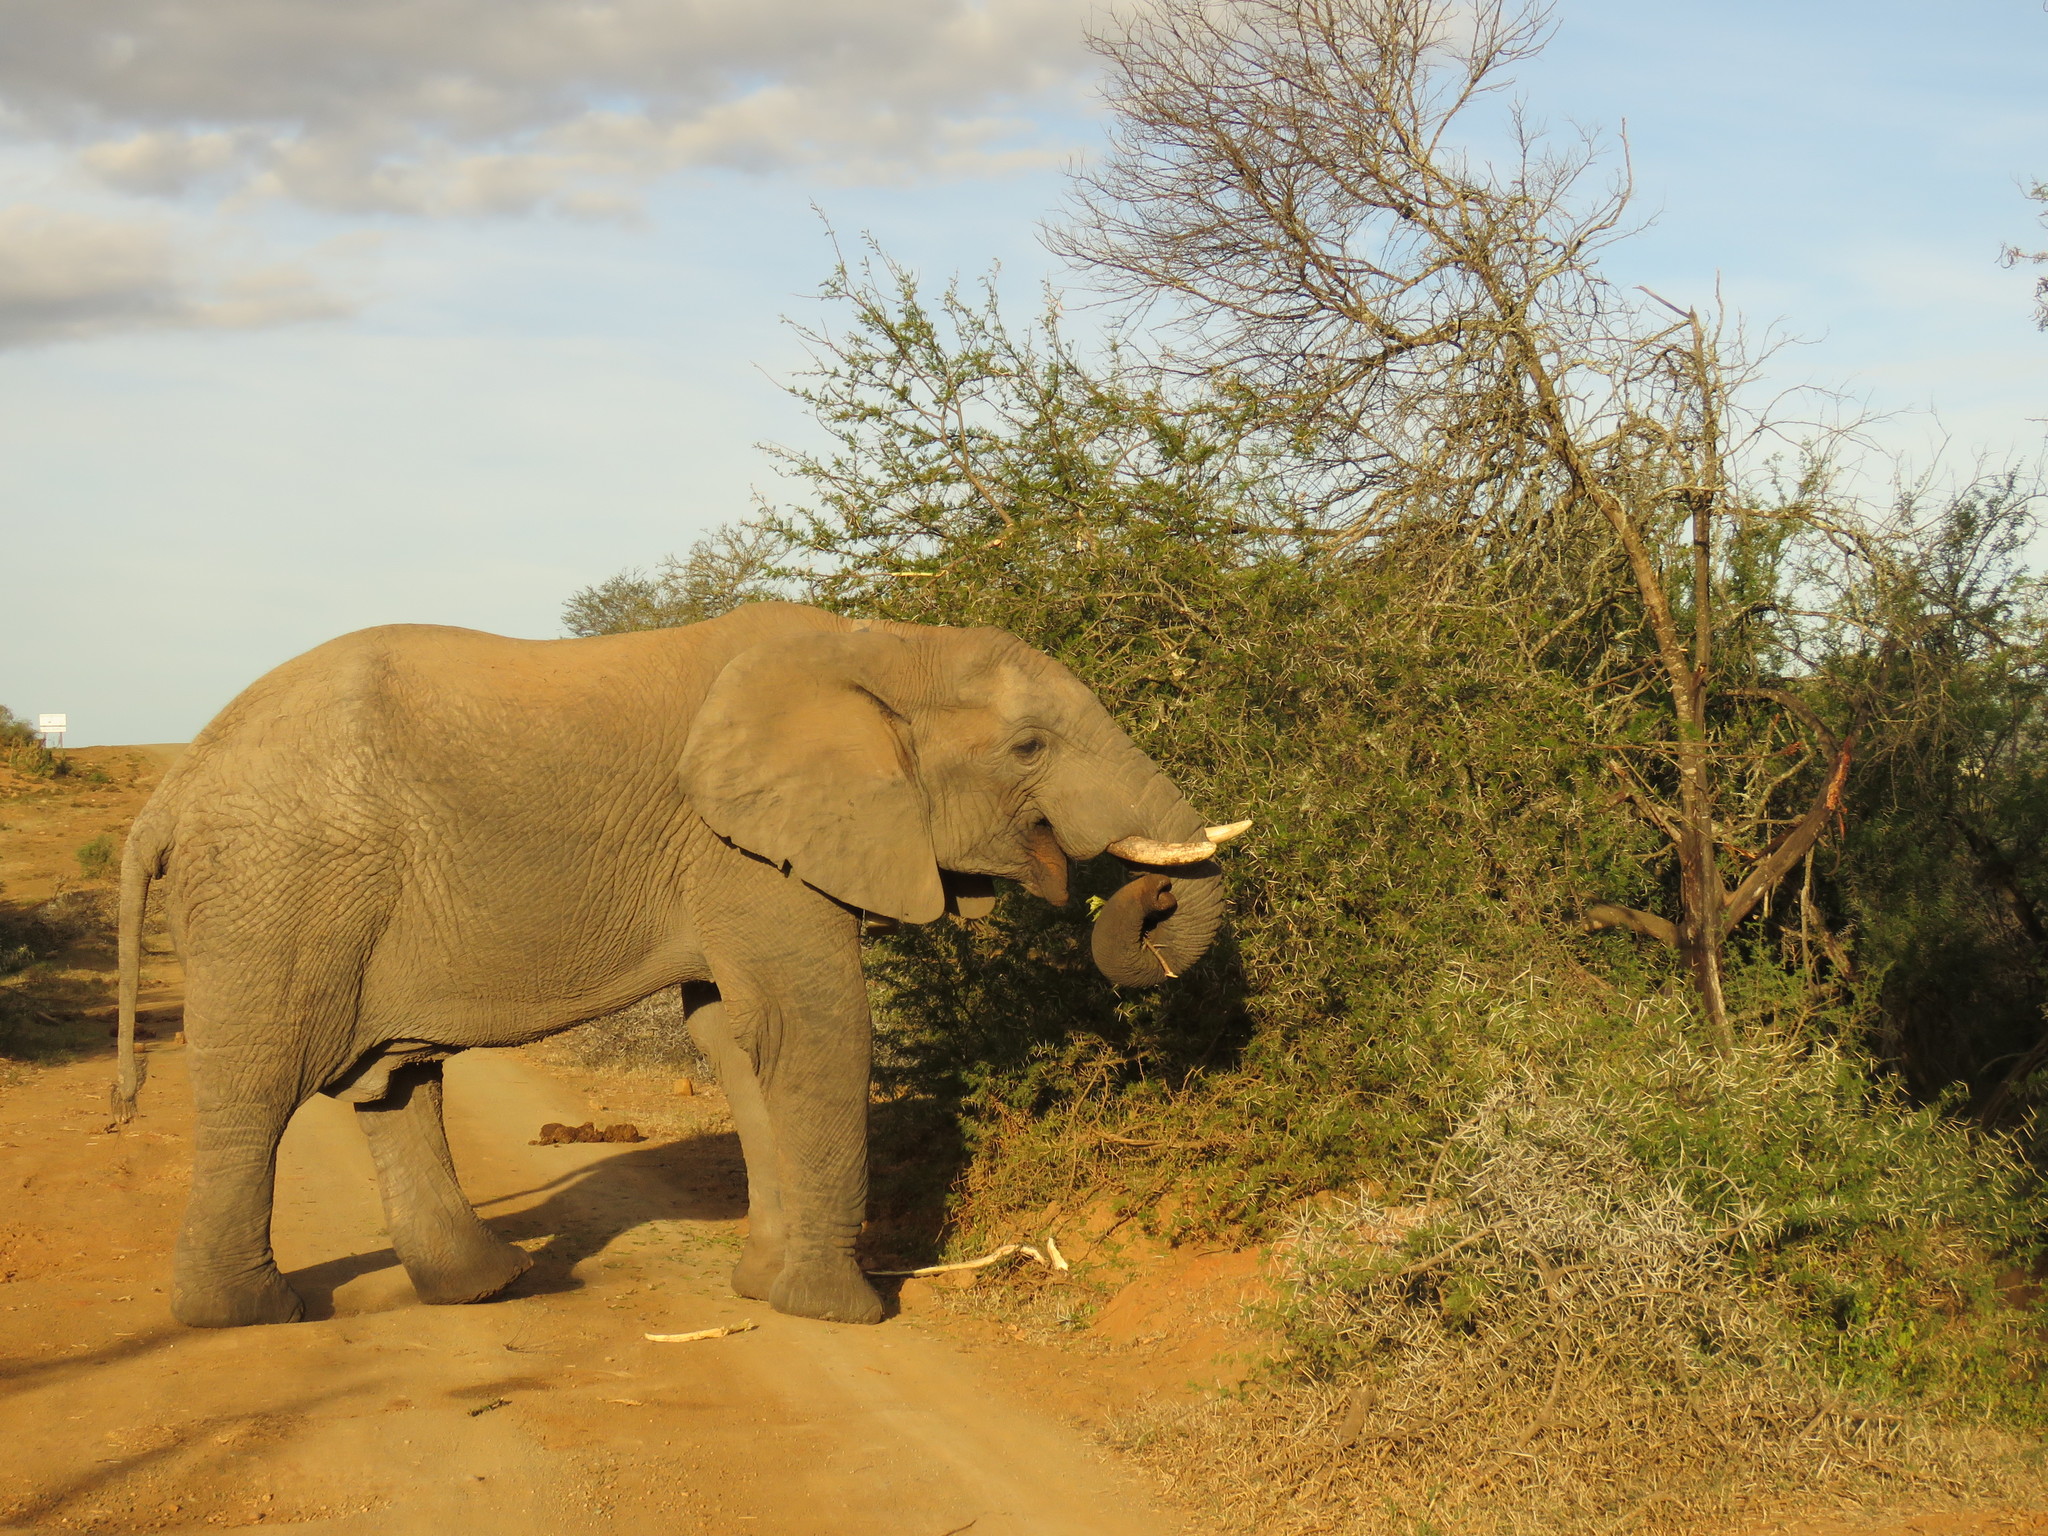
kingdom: Animalia
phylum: Chordata
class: Mammalia
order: Proboscidea
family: Elephantidae
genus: Loxodonta
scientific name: Loxodonta africana
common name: African elephant
